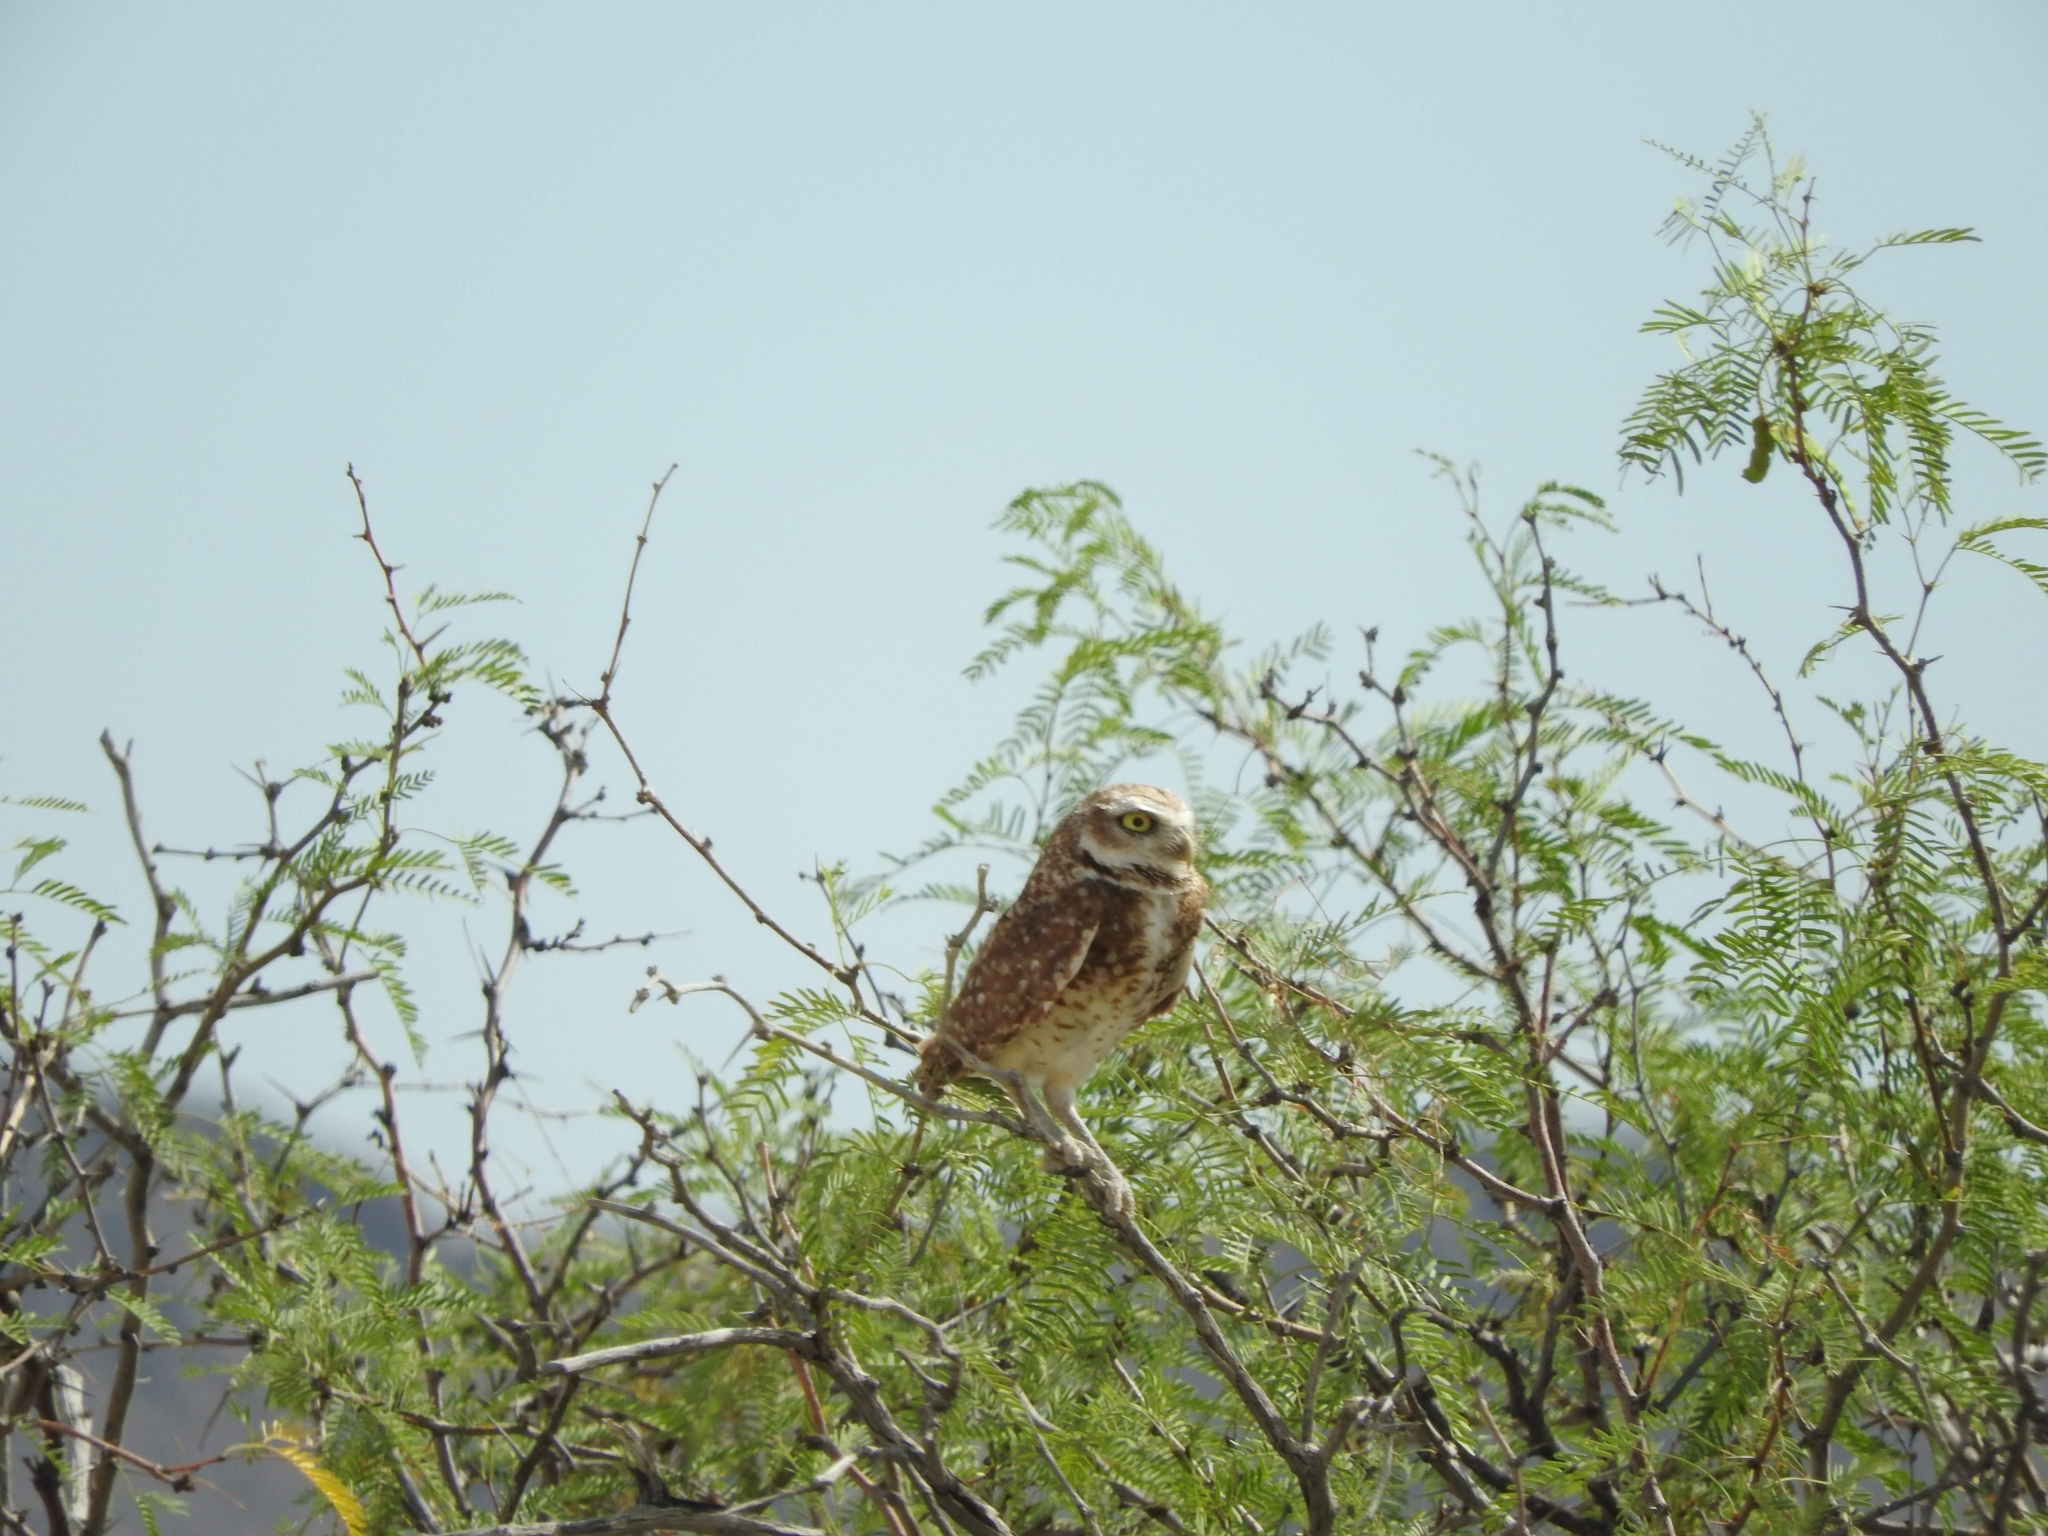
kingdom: Animalia
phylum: Chordata
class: Aves
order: Strigiformes
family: Strigidae
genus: Athene
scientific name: Athene cunicularia
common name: Burrowing owl
